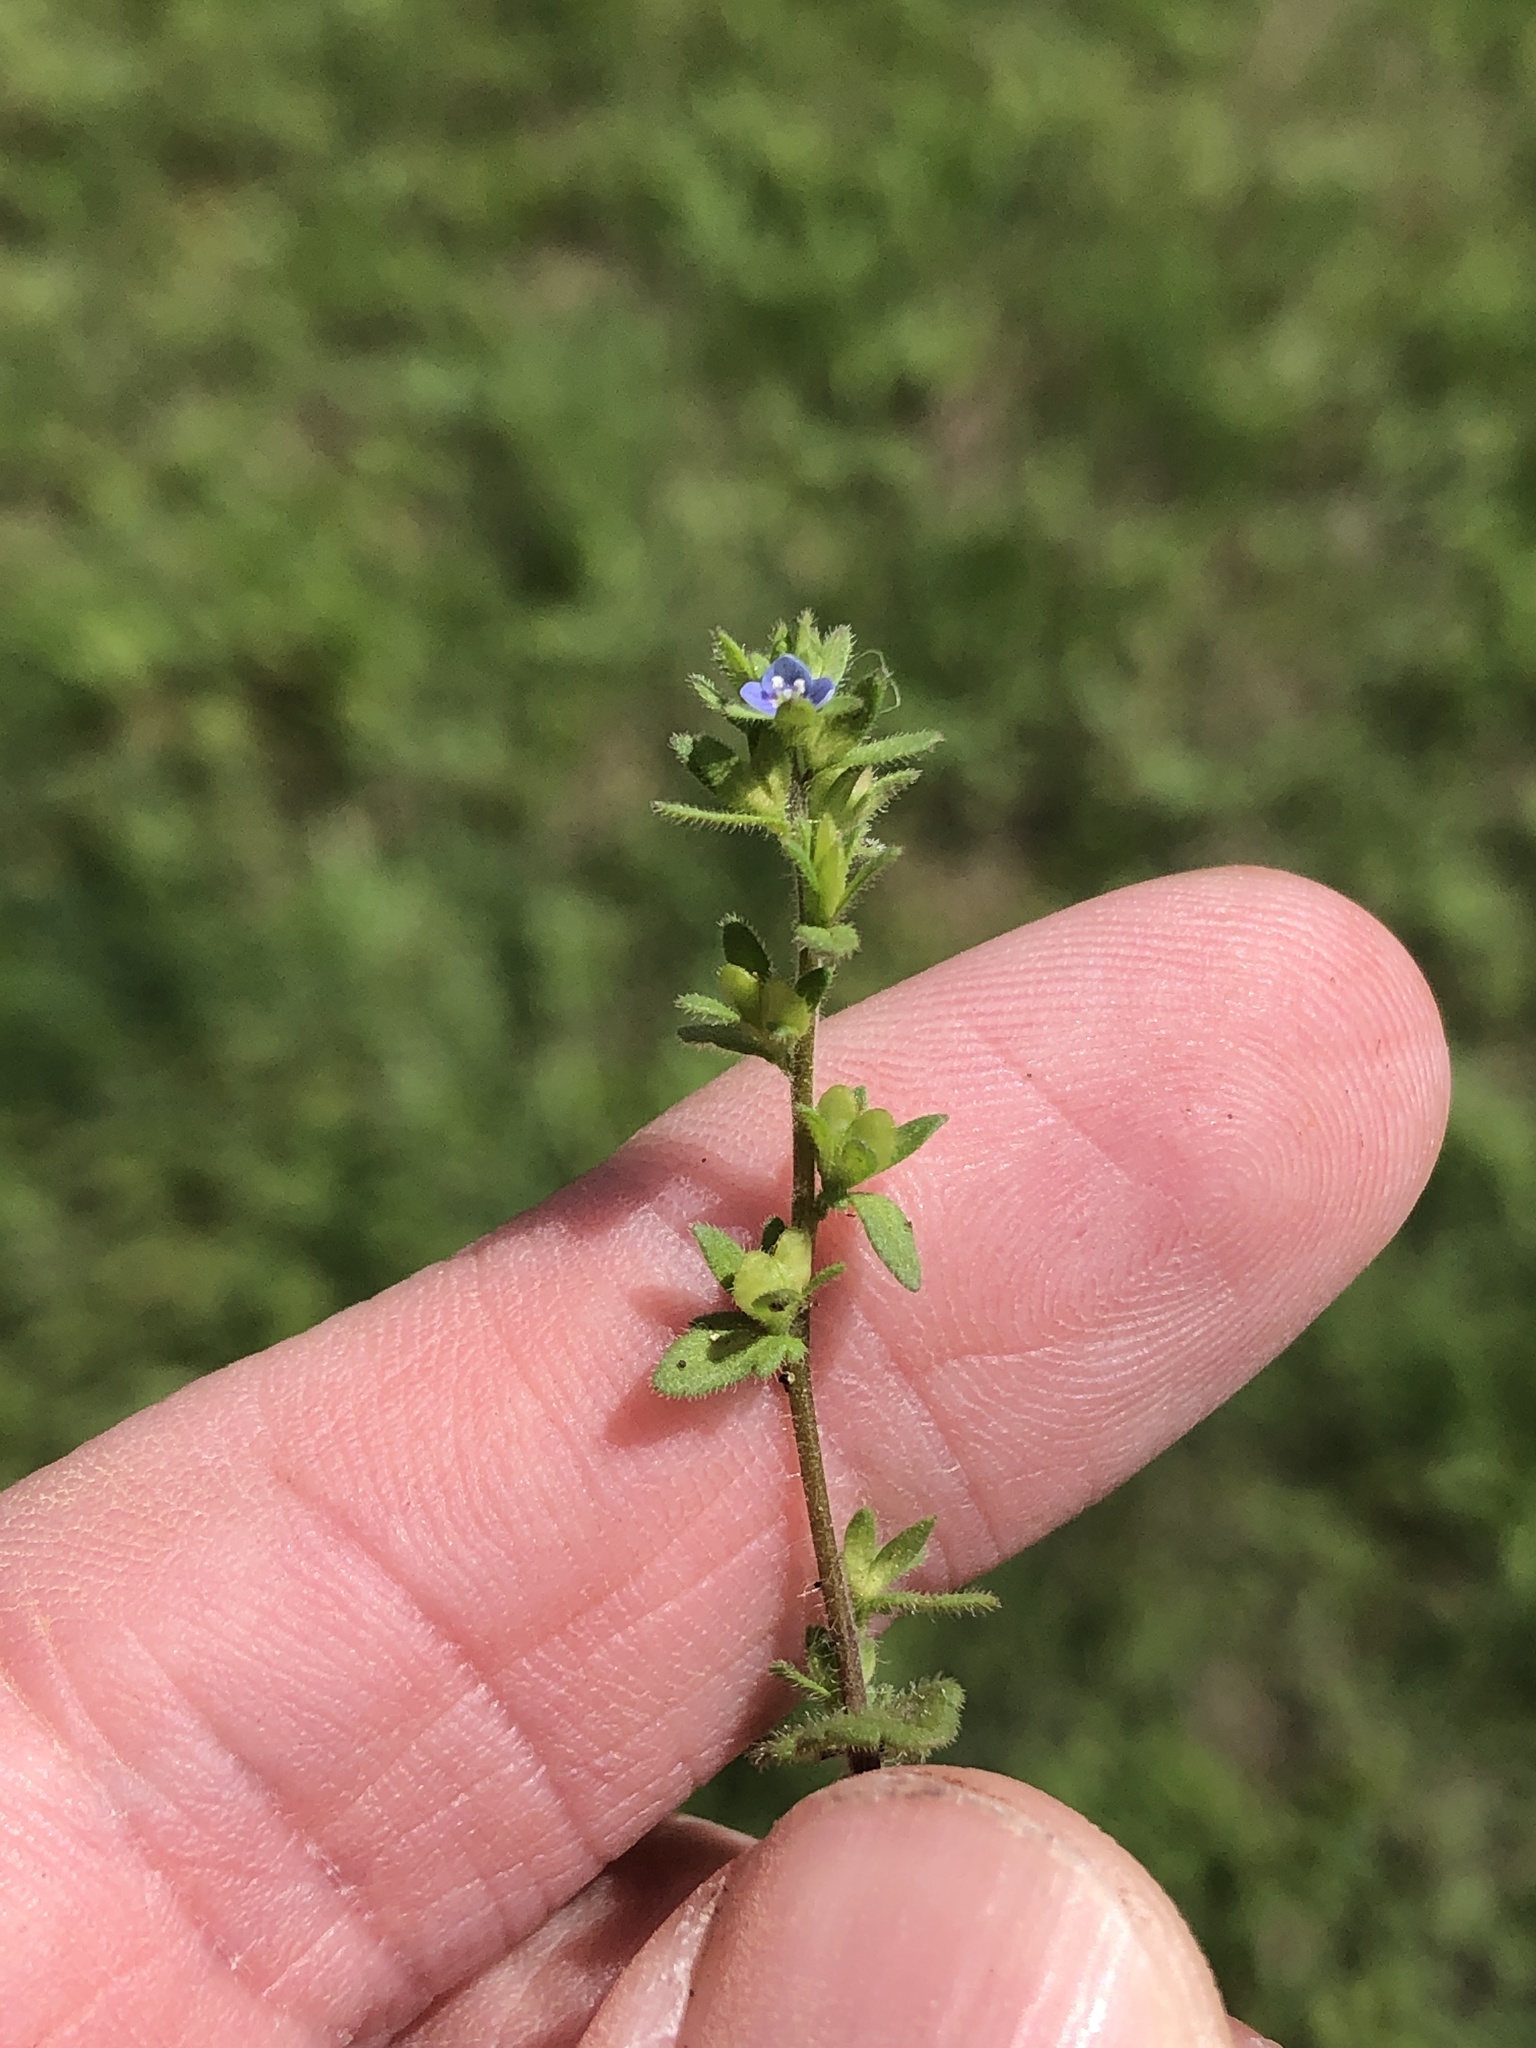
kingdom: Plantae
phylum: Tracheophyta
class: Magnoliopsida
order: Lamiales
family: Plantaginaceae
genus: Veronica
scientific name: Veronica arvensis
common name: Corn speedwell
